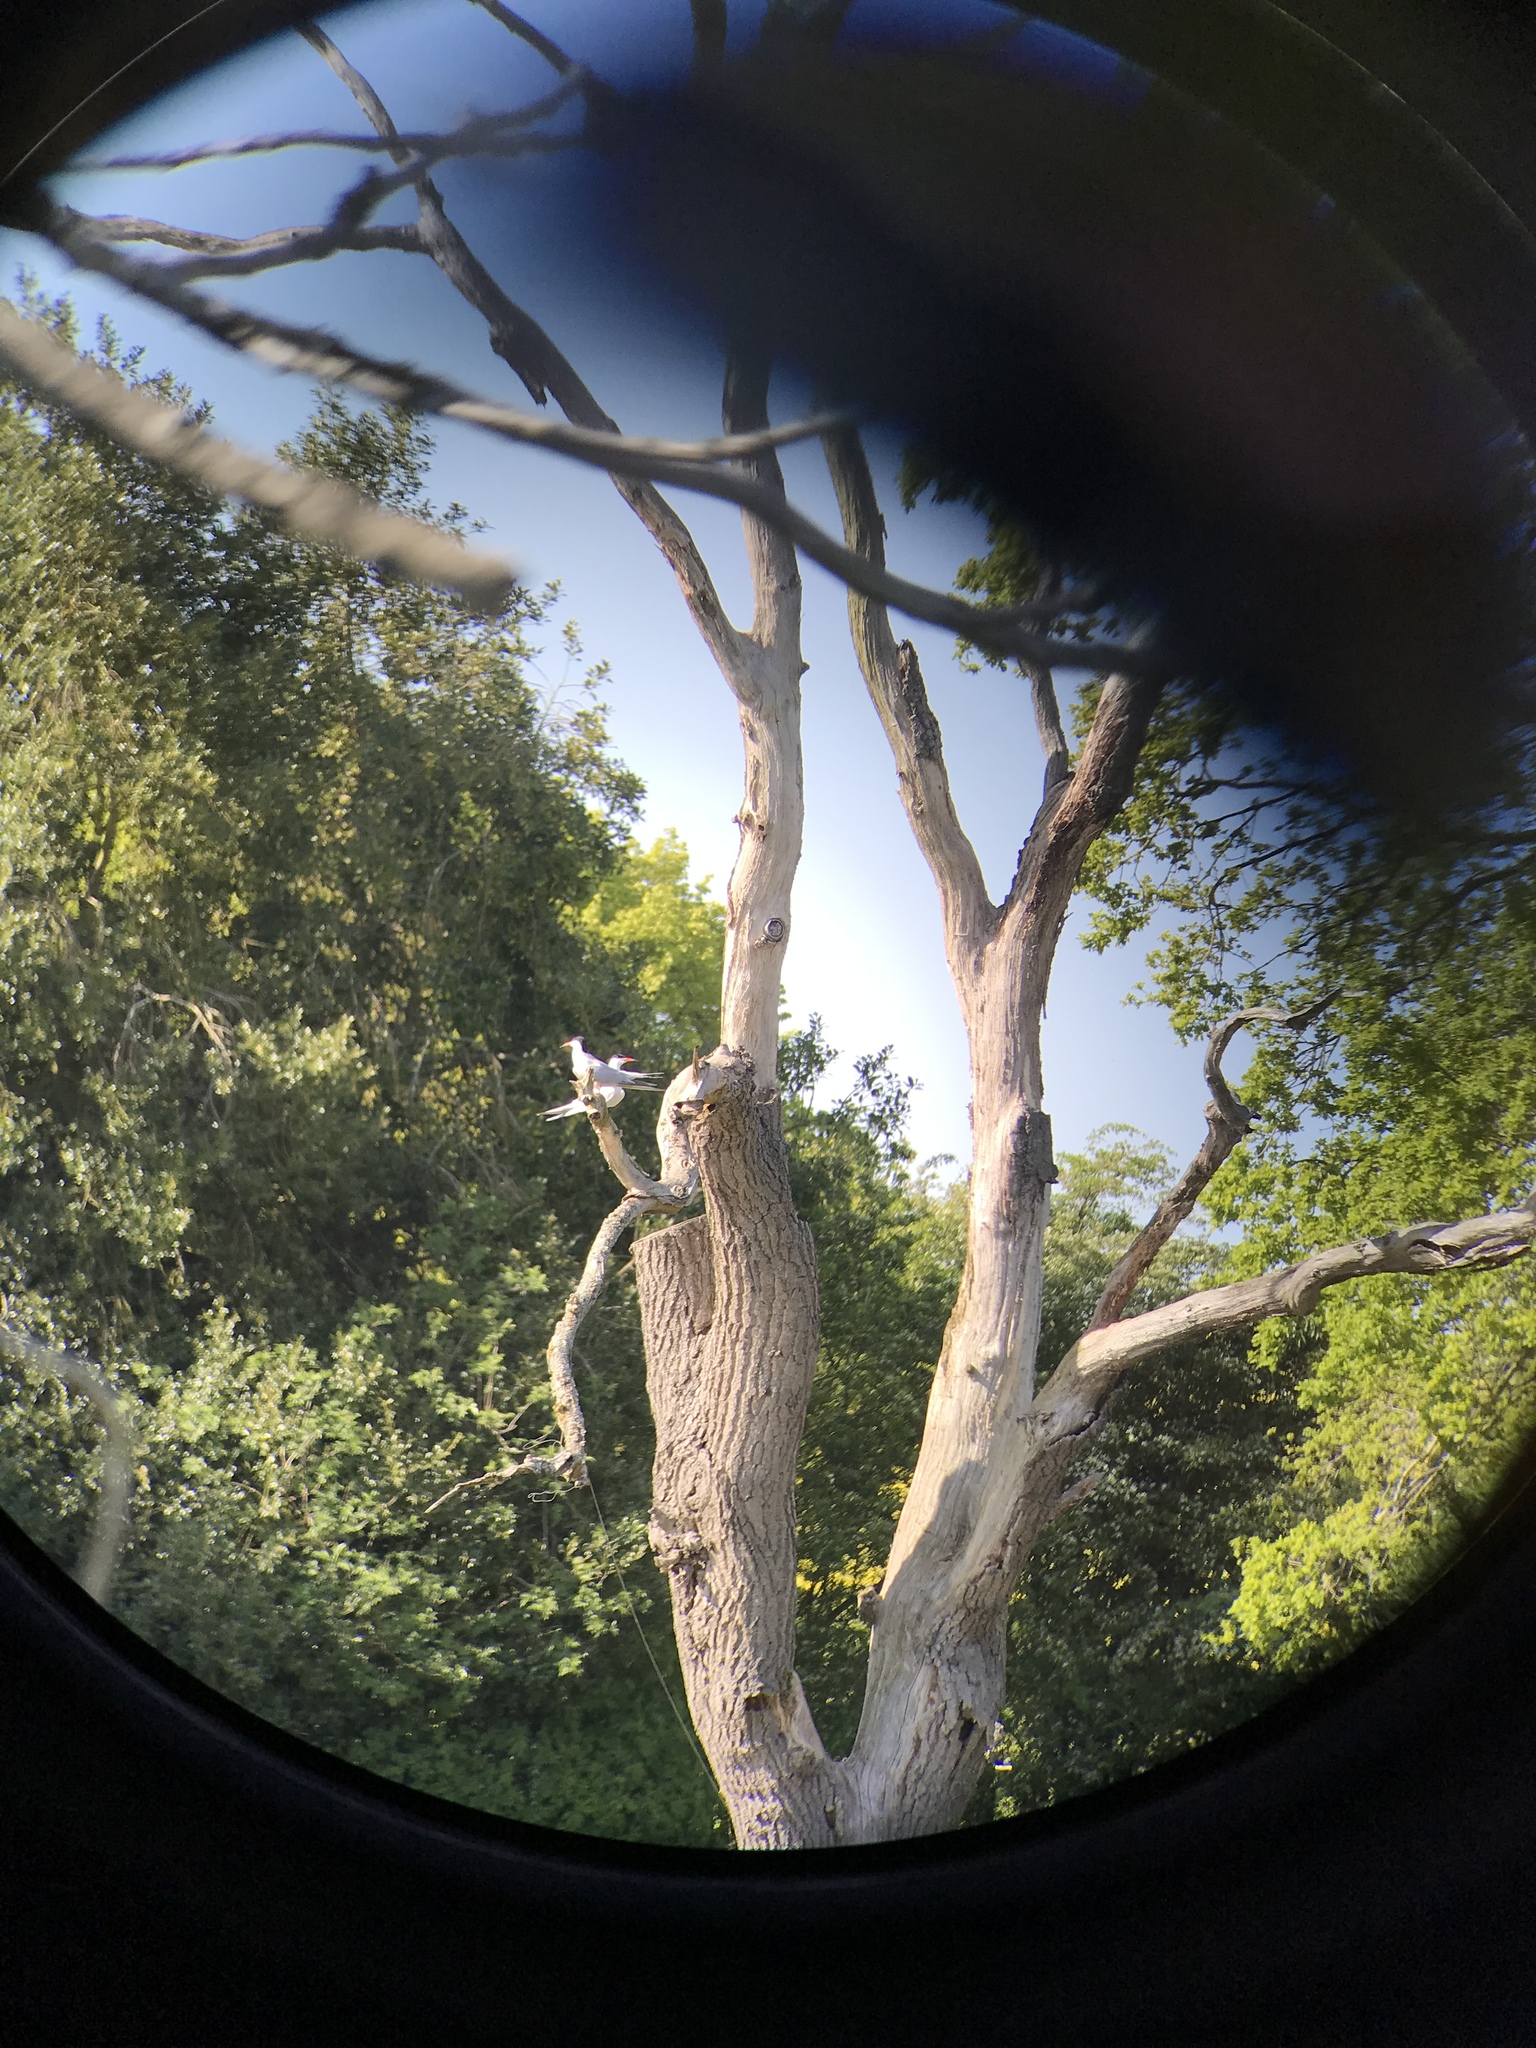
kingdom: Animalia
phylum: Chordata
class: Aves
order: Charadriiformes
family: Laridae
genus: Sterna
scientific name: Sterna hirundo
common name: Common tern
